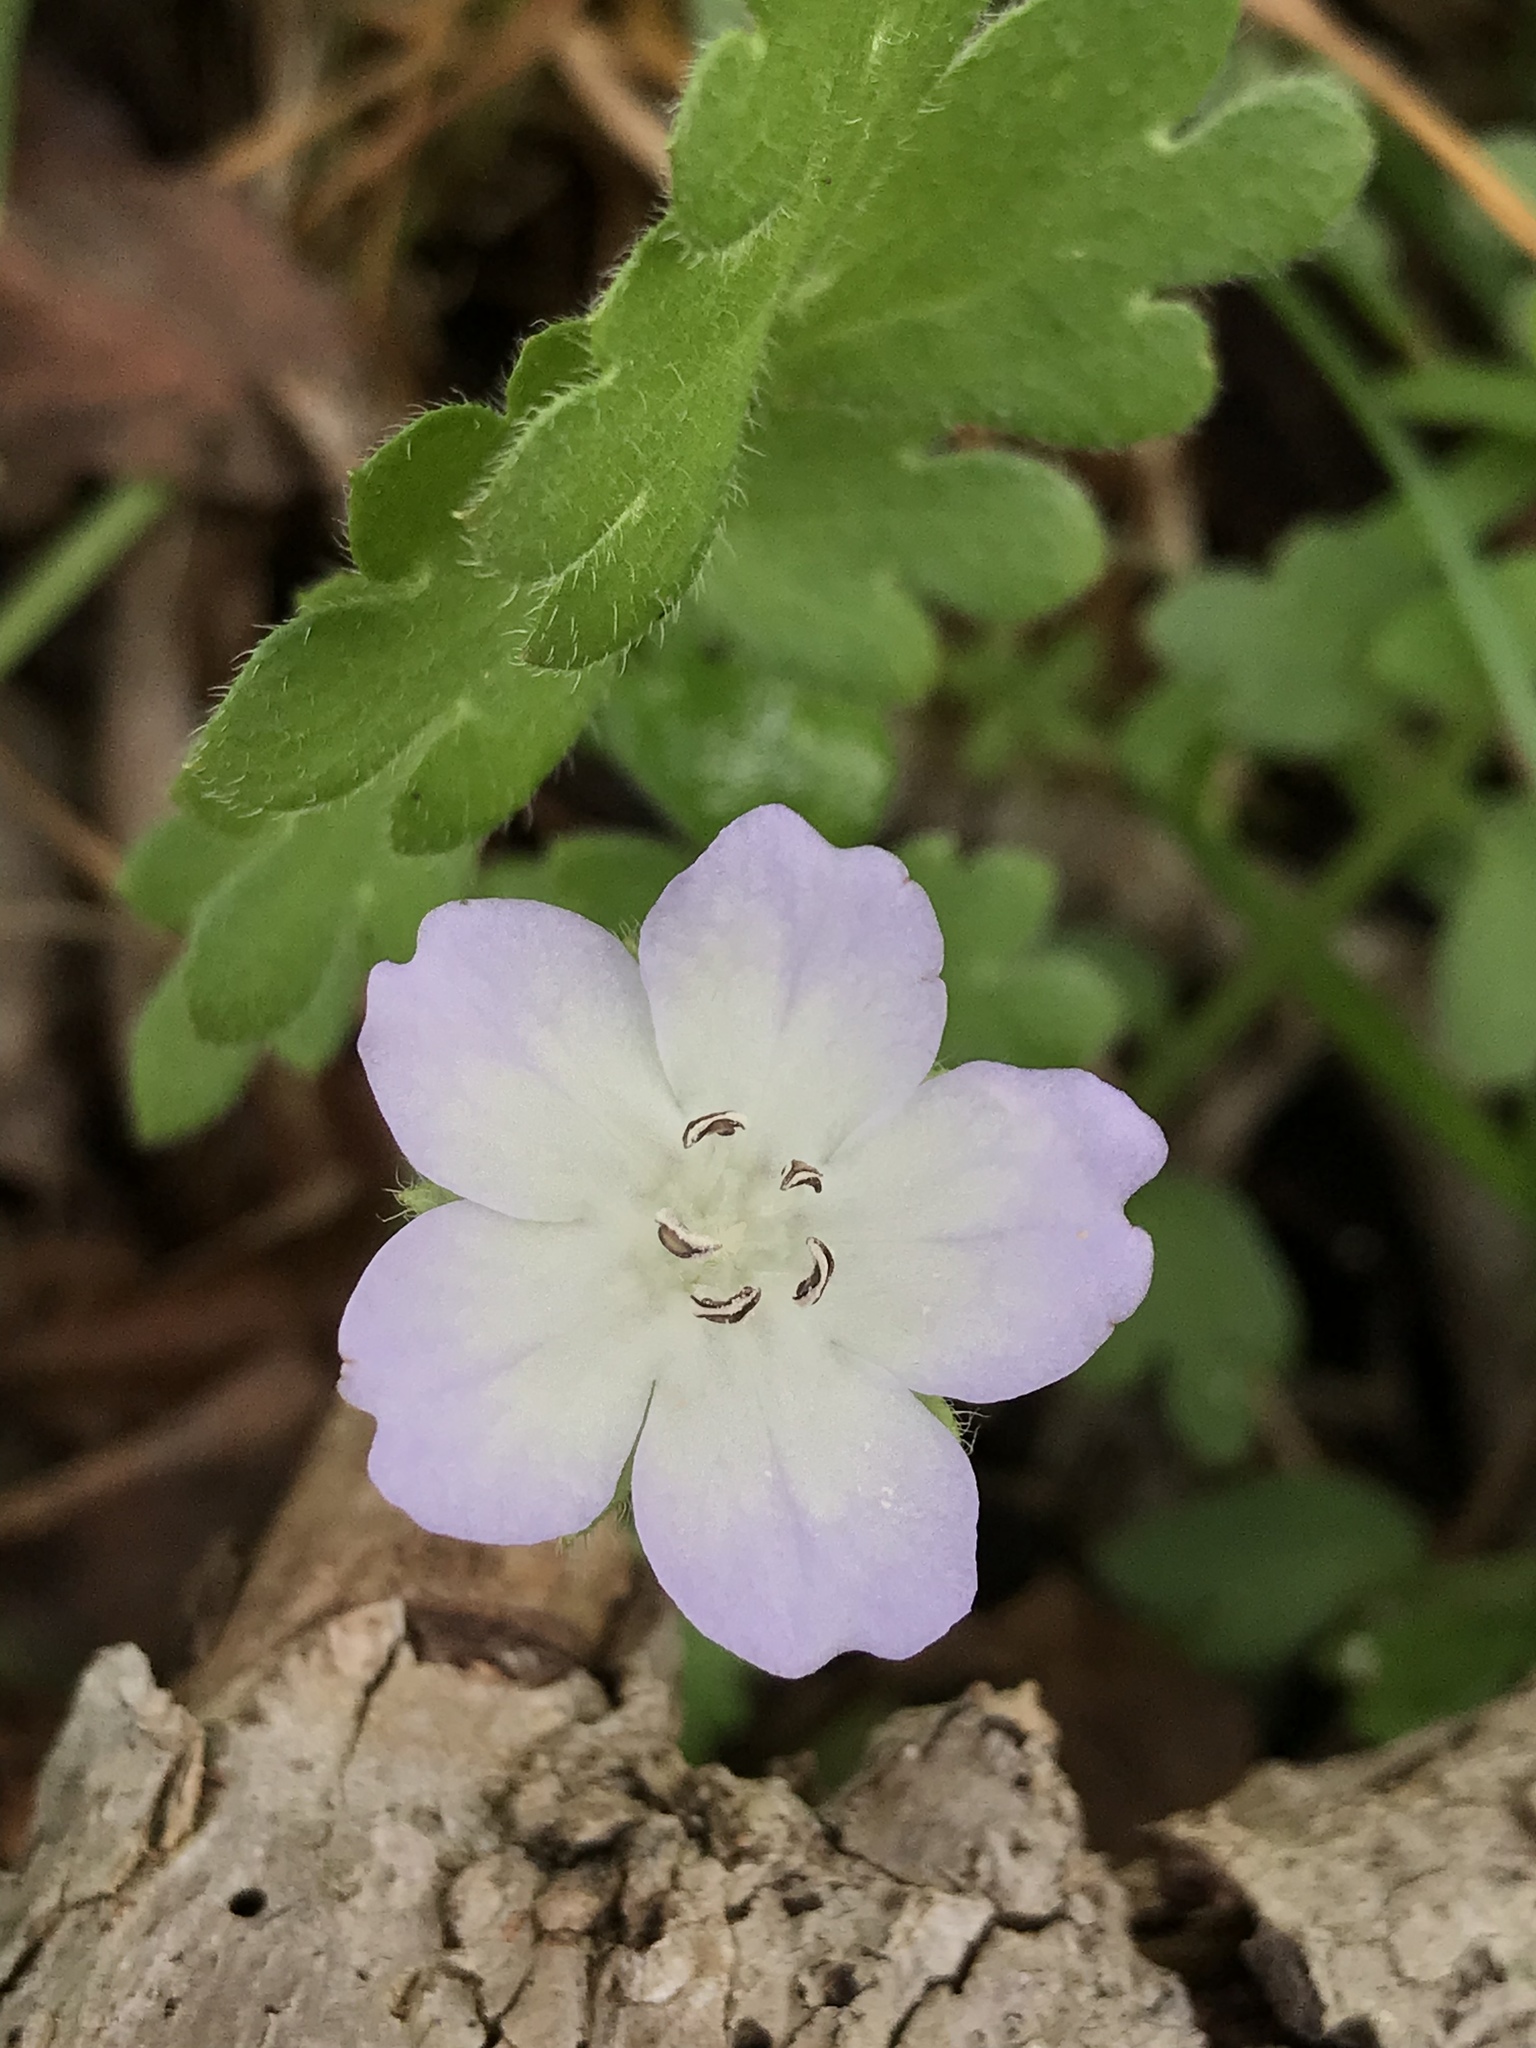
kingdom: Plantae
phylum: Tracheophyta
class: Magnoliopsida
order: Boraginales
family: Hydrophyllaceae
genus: Nemophila
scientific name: Nemophila phacelioides
